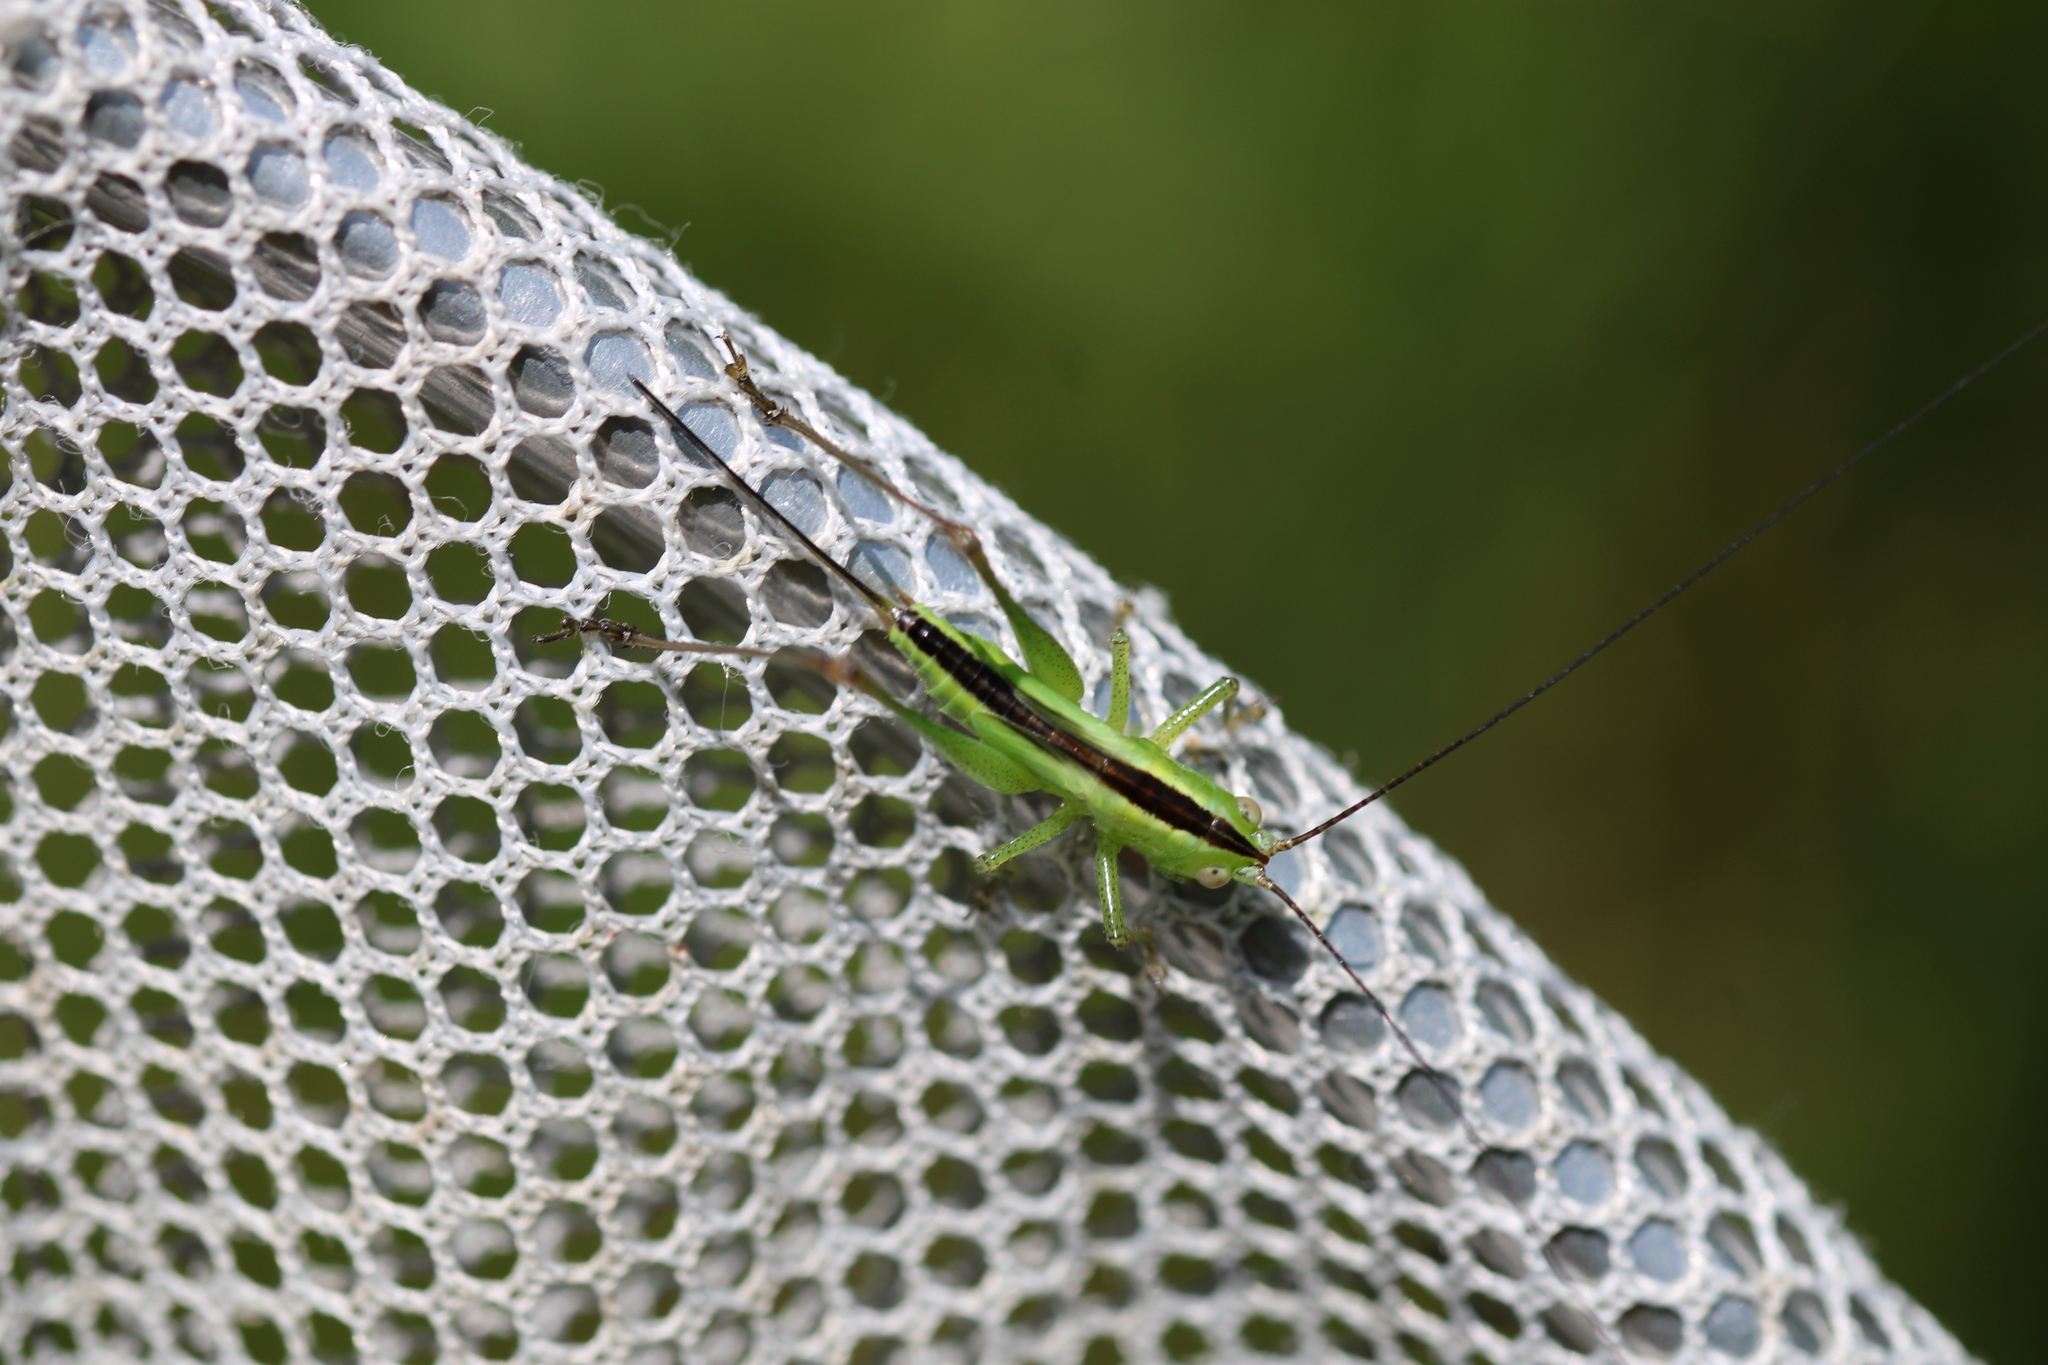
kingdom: Animalia
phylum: Arthropoda
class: Insecta
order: Orthoptera
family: Tettigoniidae
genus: Conocephalus
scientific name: Conocephalus fuscus
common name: Long-winged conehead
